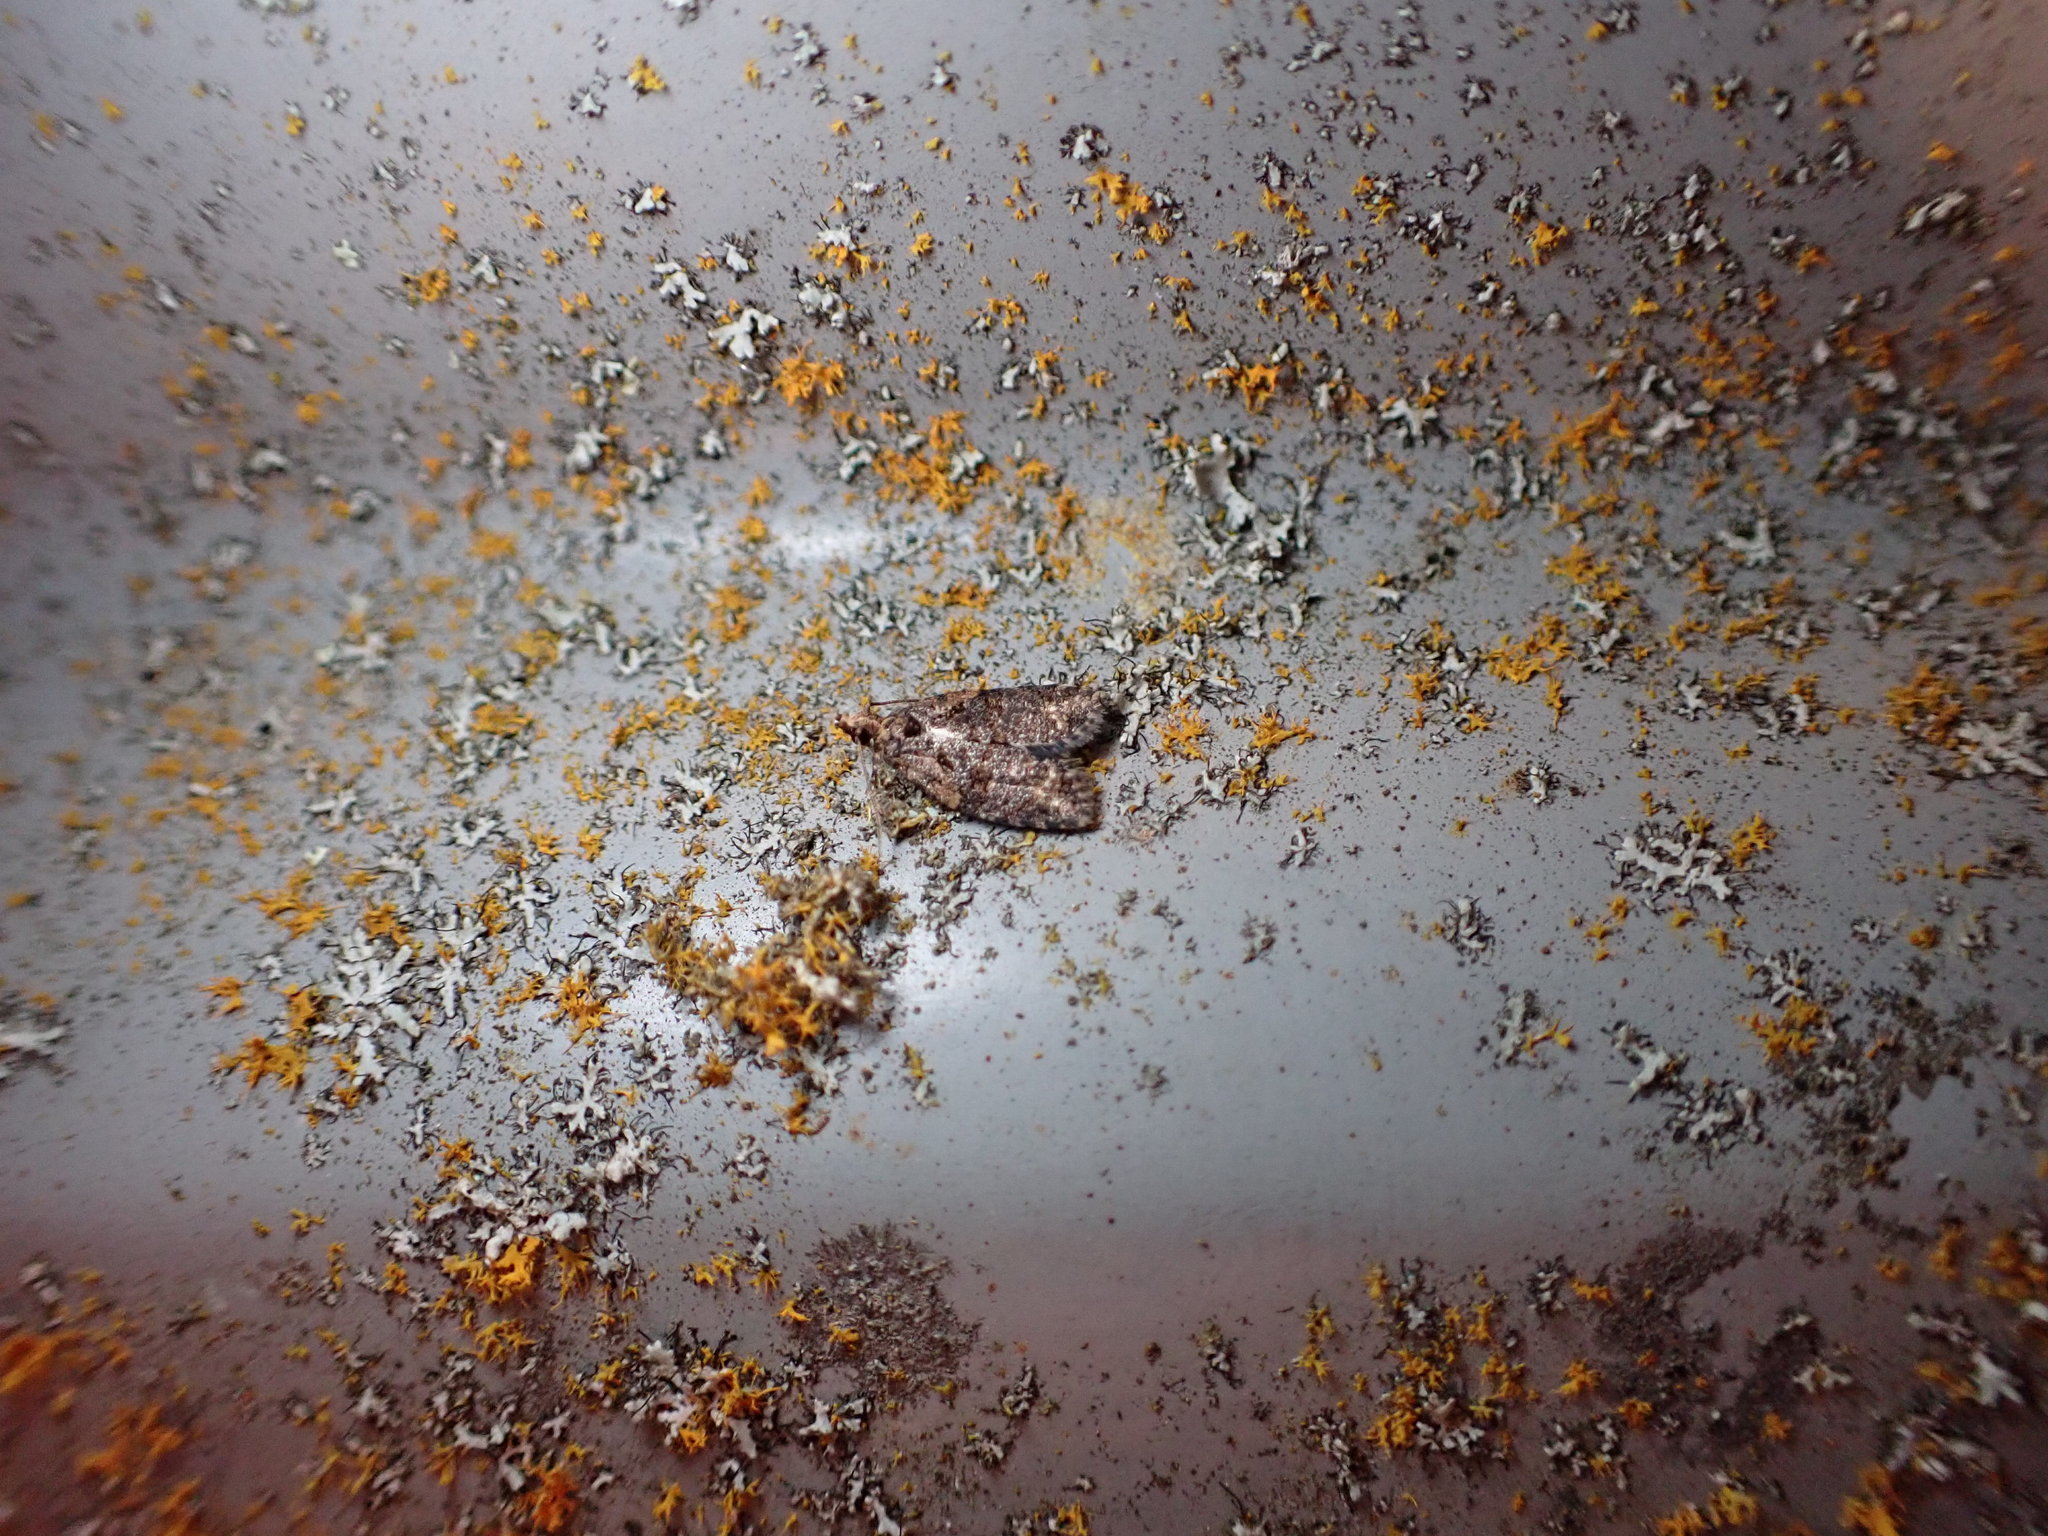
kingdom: Animalia
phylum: Arthropoda
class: Insecta
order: Lepidoptera
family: Tortricidae
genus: Capua
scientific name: Capua intractana
